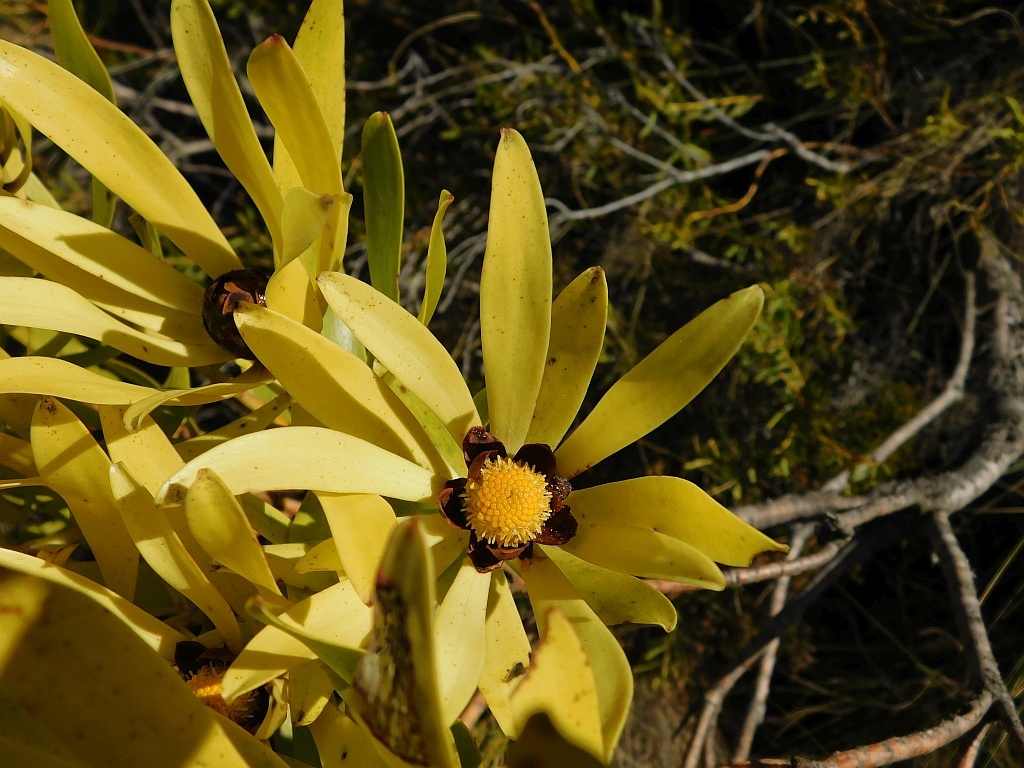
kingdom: Plantae
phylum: Tracheophyta
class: Magnoliopsida
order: Proteales
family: Proteaceae
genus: Leucadendron
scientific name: Leucadendron microcephalum
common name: Oilbract conebush
